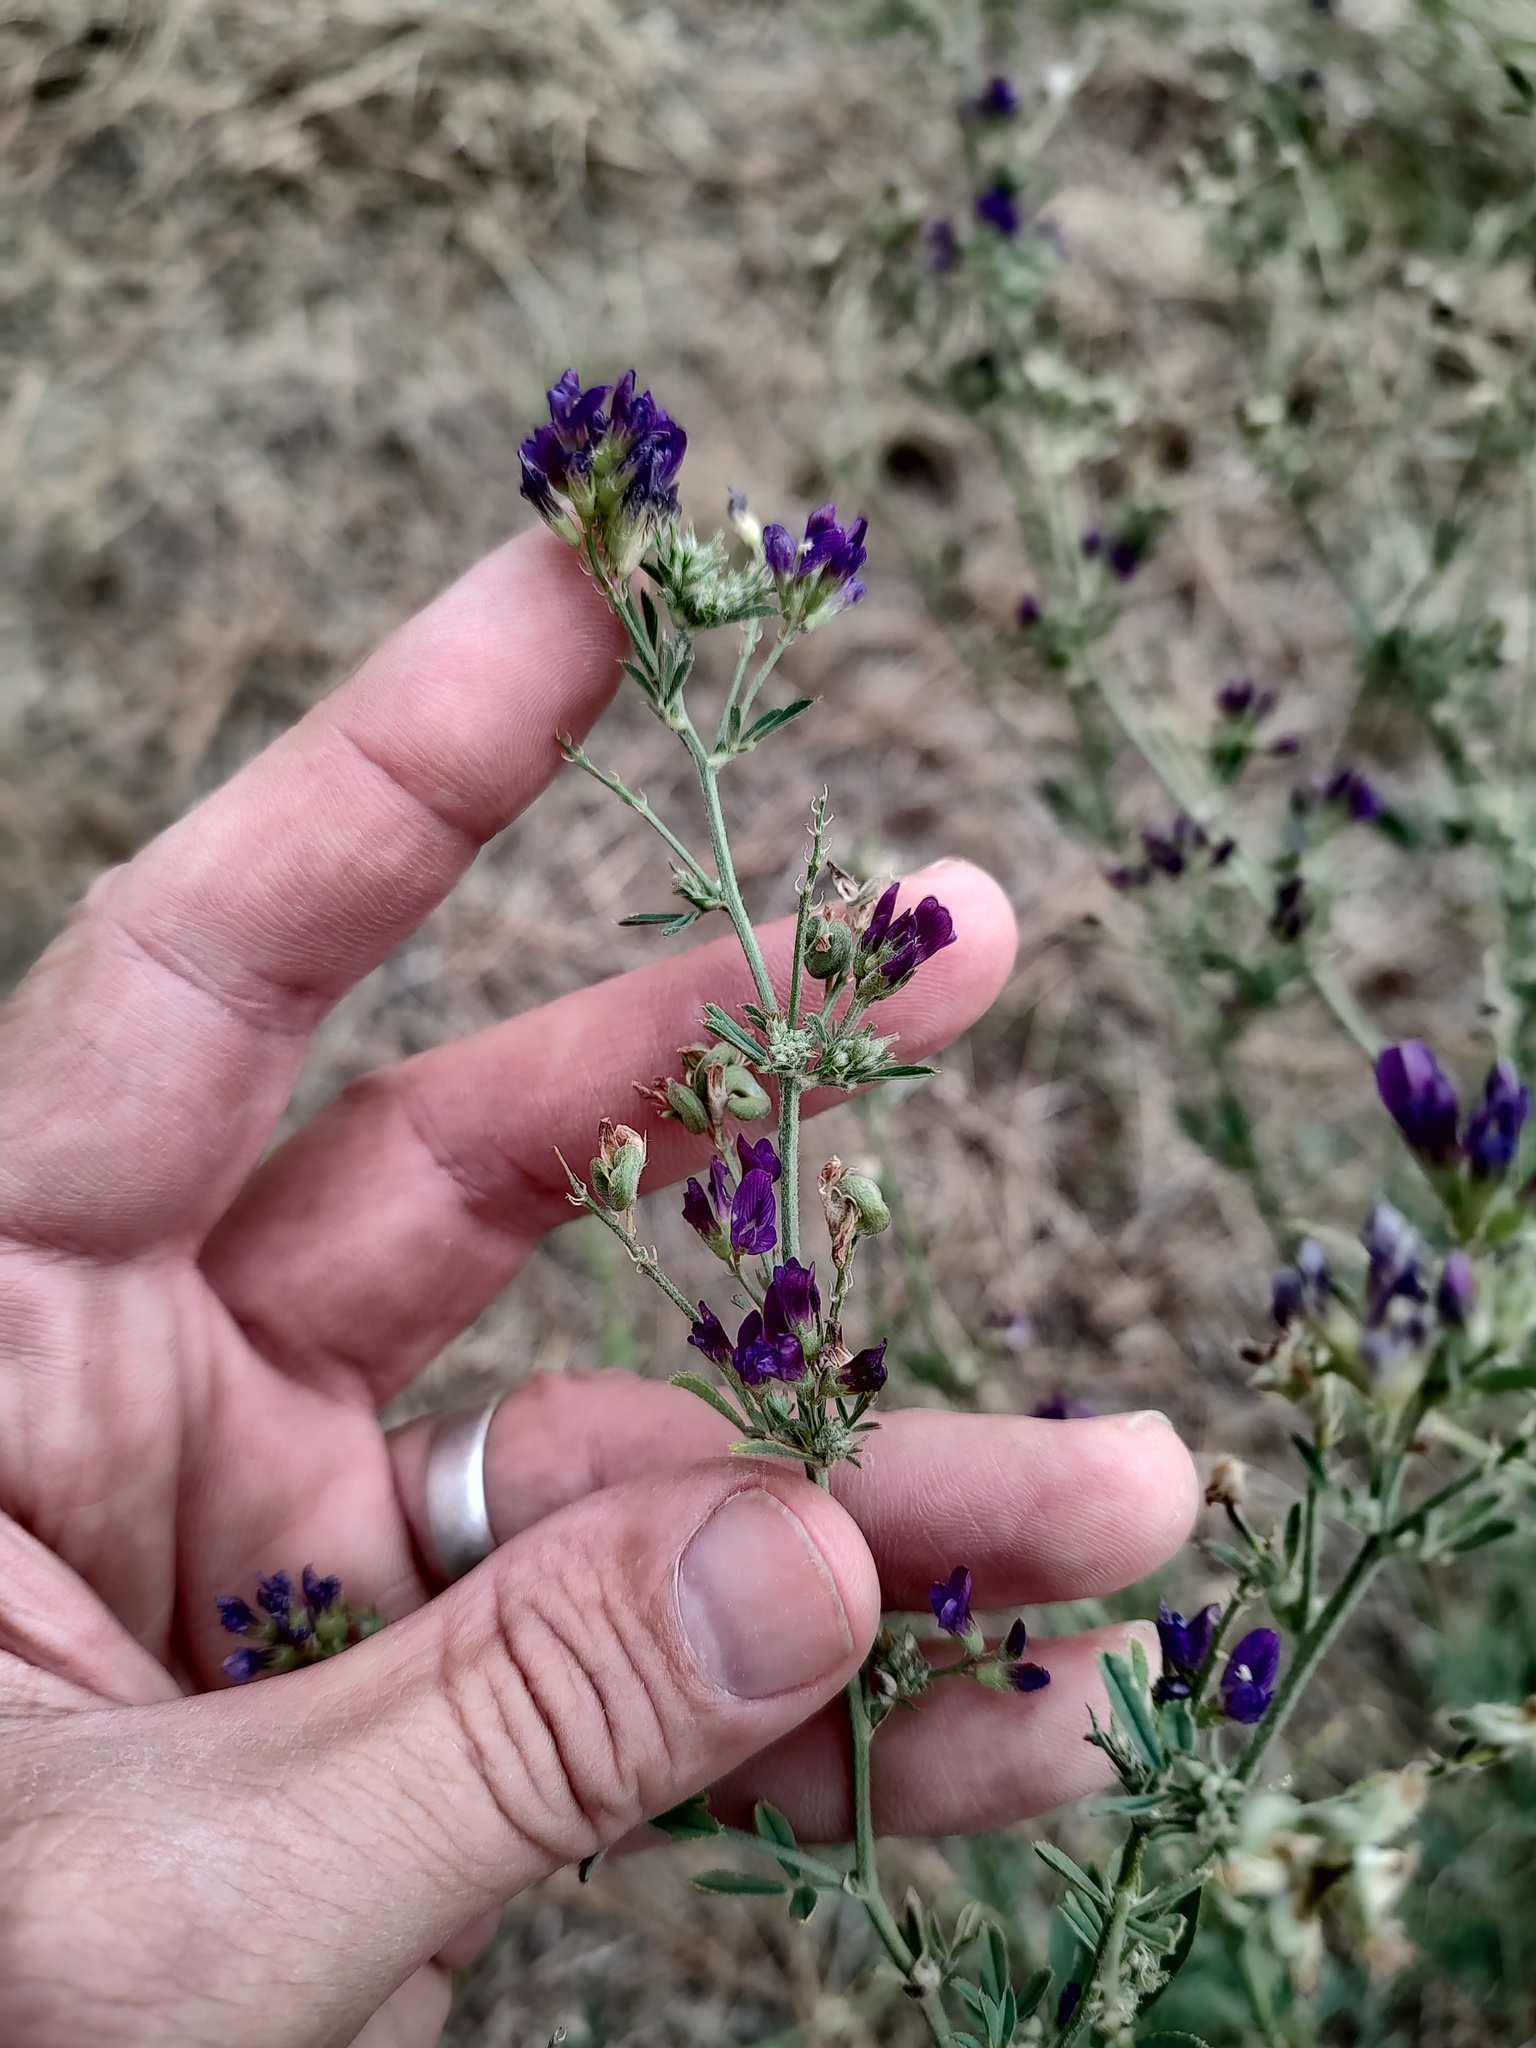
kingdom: Plantae
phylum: Tracheophyta
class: Magnoliopsida
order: Fabales
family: Fabaceae
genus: Medicago
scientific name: Medicago sativa
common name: Alfalfa
